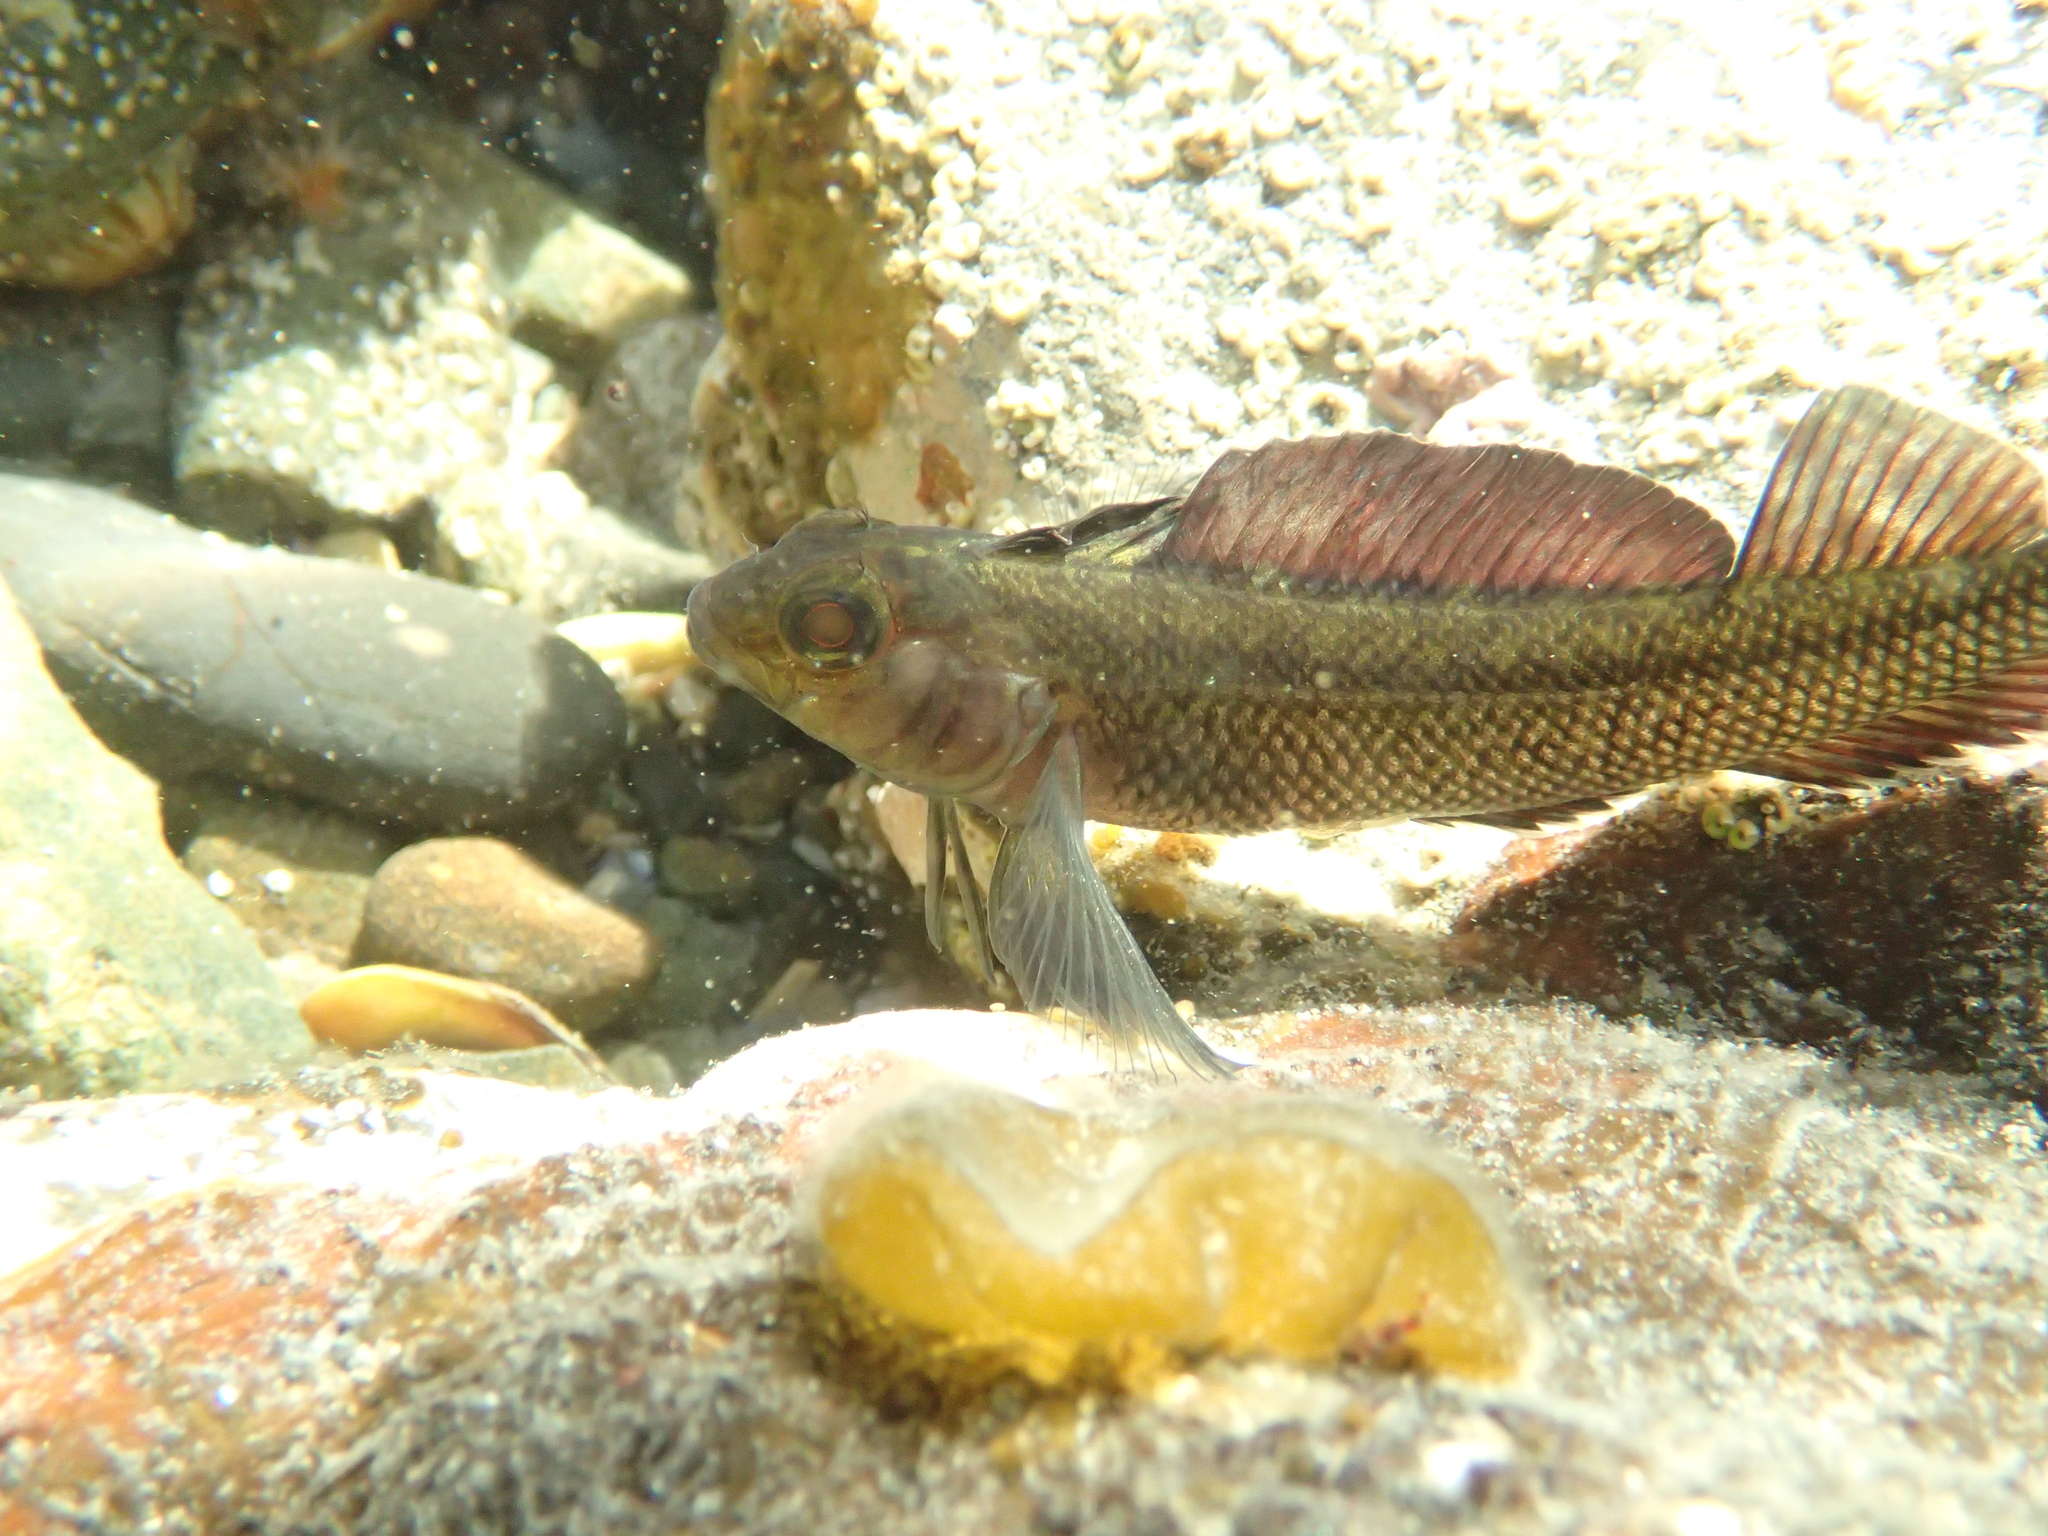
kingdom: Animalia
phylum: Chordata
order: Perciformes
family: Tripterygiidae
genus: Forsterygion
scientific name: Forsterygion lapillum
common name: Common triplefin
